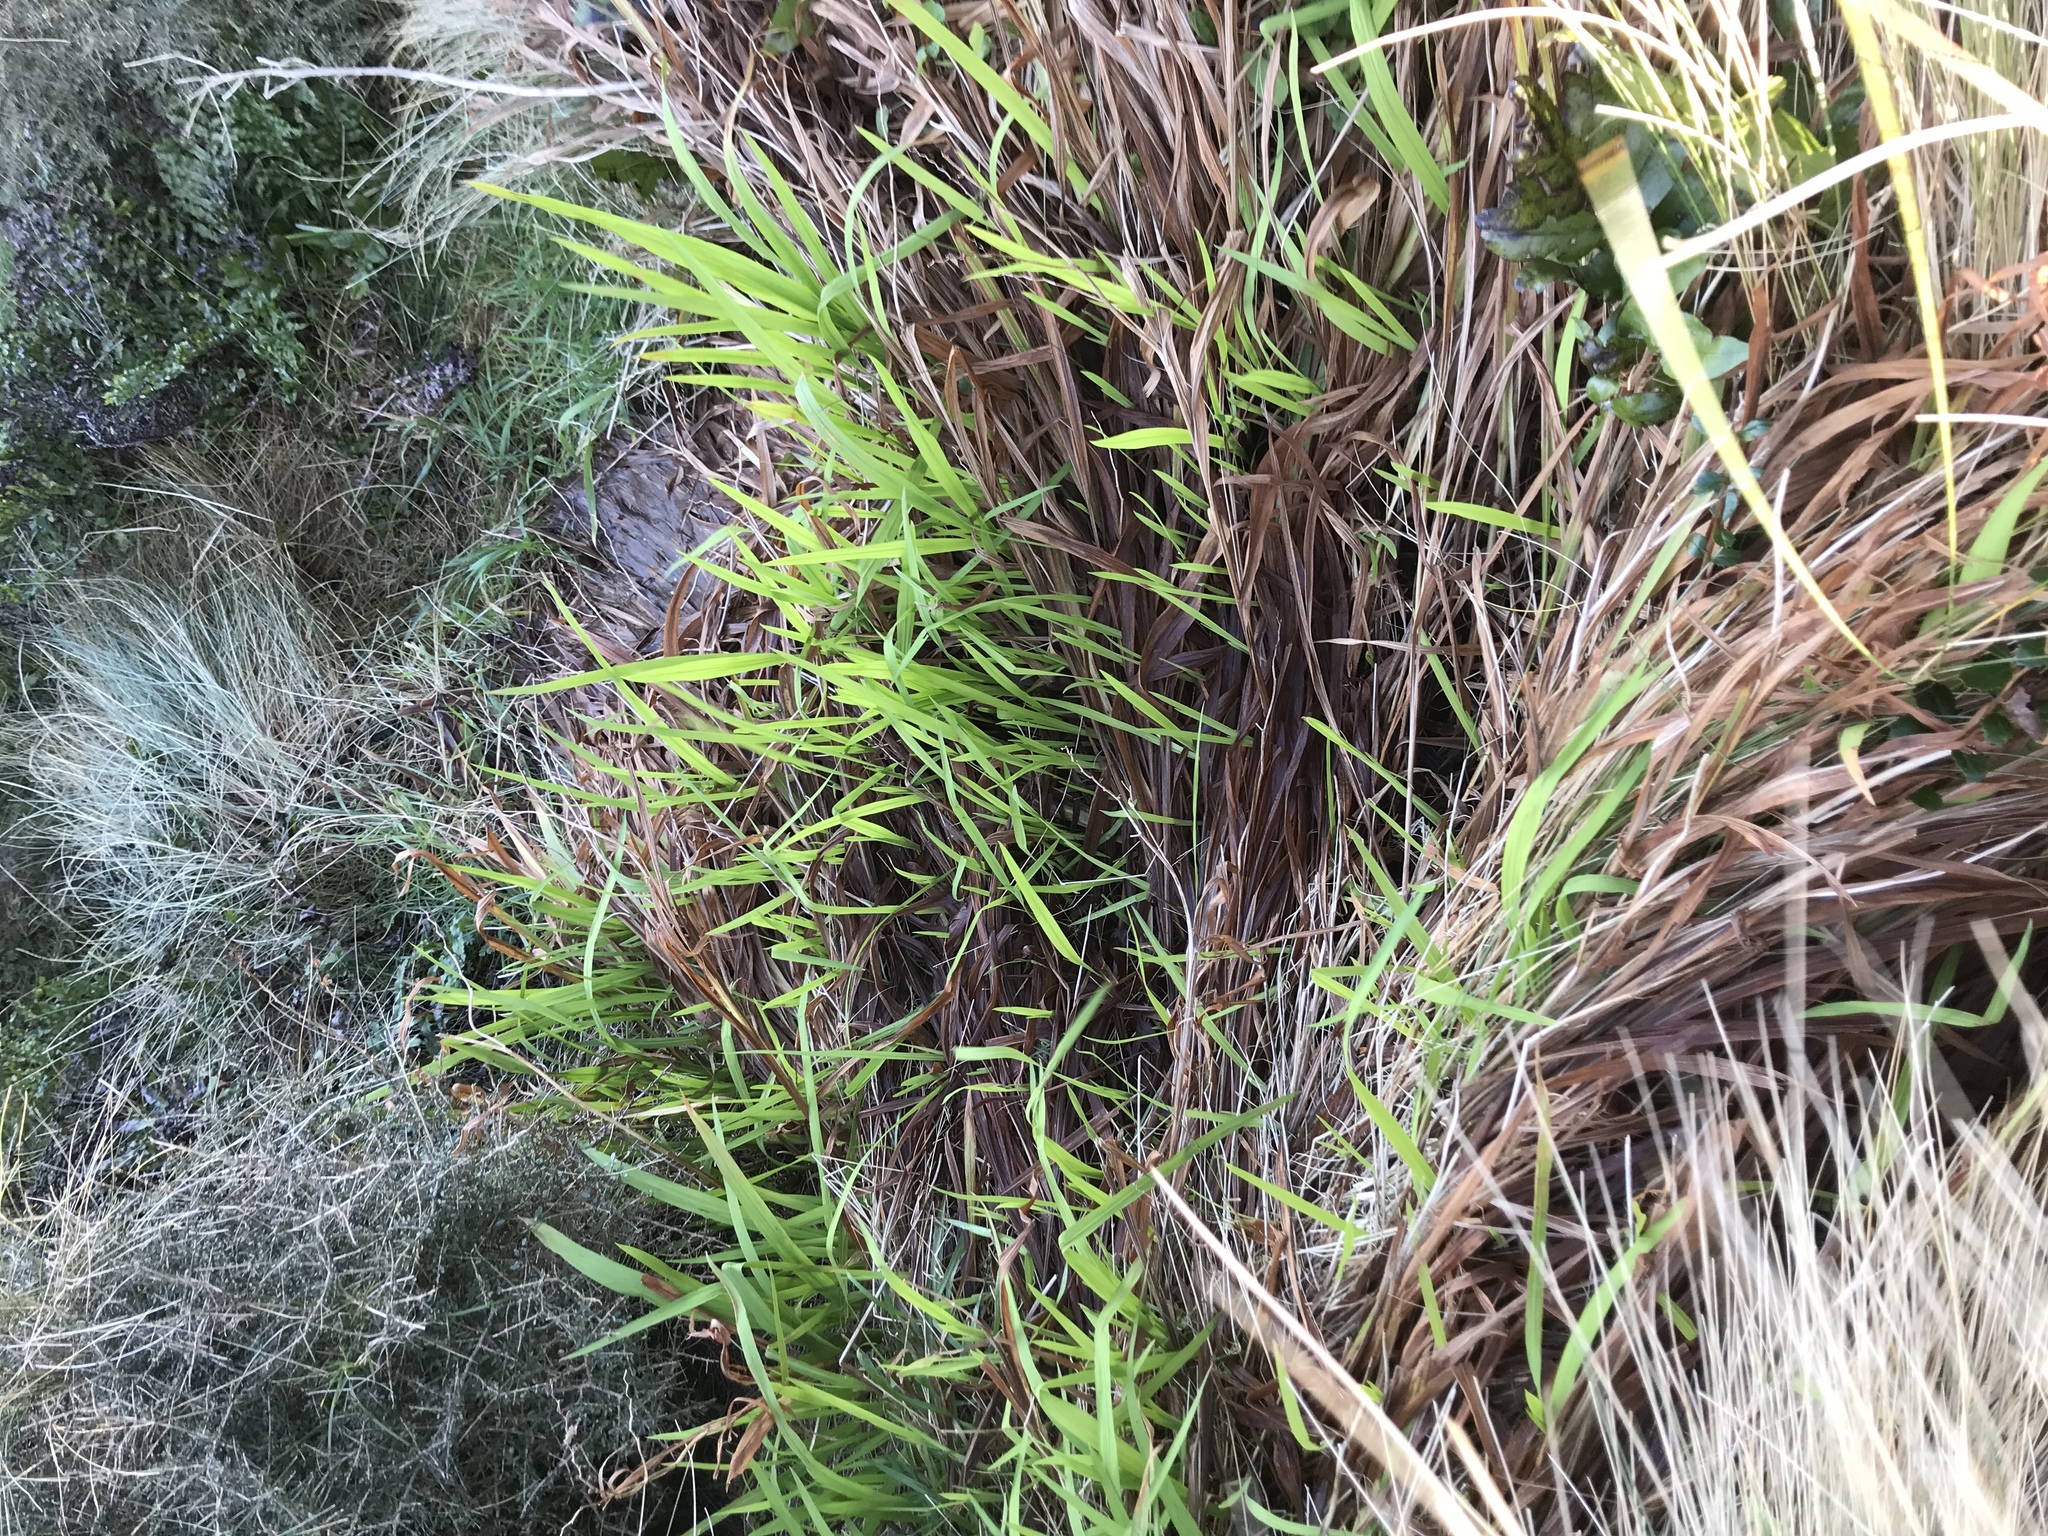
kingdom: Plantae
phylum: Tracheophyta
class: Liliopsida
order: Asparagales
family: Iridaceae
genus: Crocosmia
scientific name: Crocosmia crocosmiiflora
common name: Montbretia
